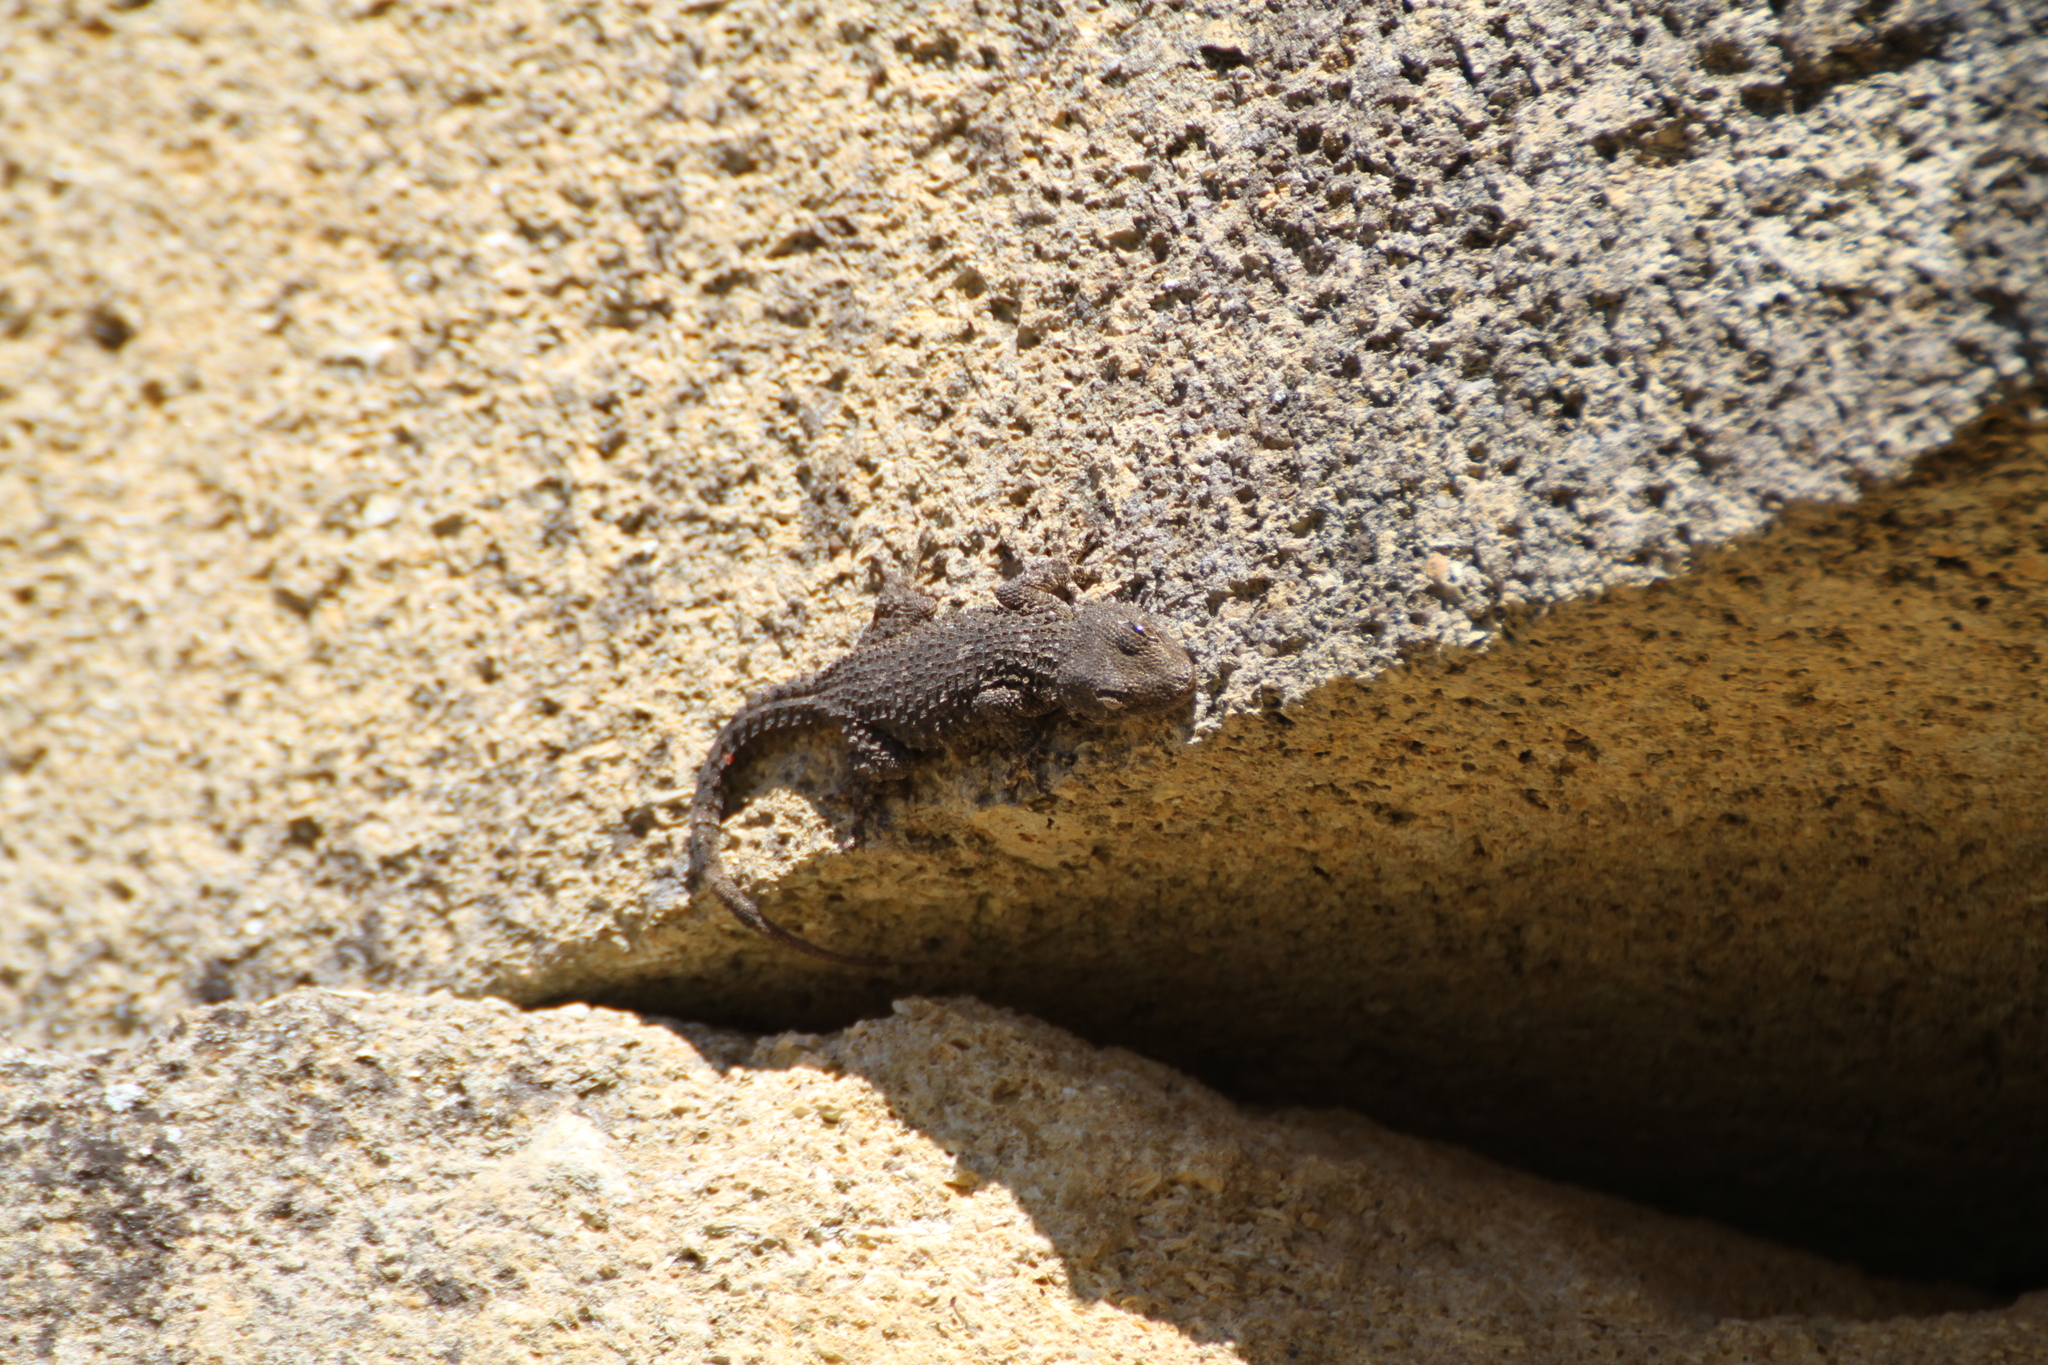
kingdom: Animalia
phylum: Chordata
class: Squamata
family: Phyllodactylidae
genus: Tarentola
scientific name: Tarentola mauritanica
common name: Moorish gecko
